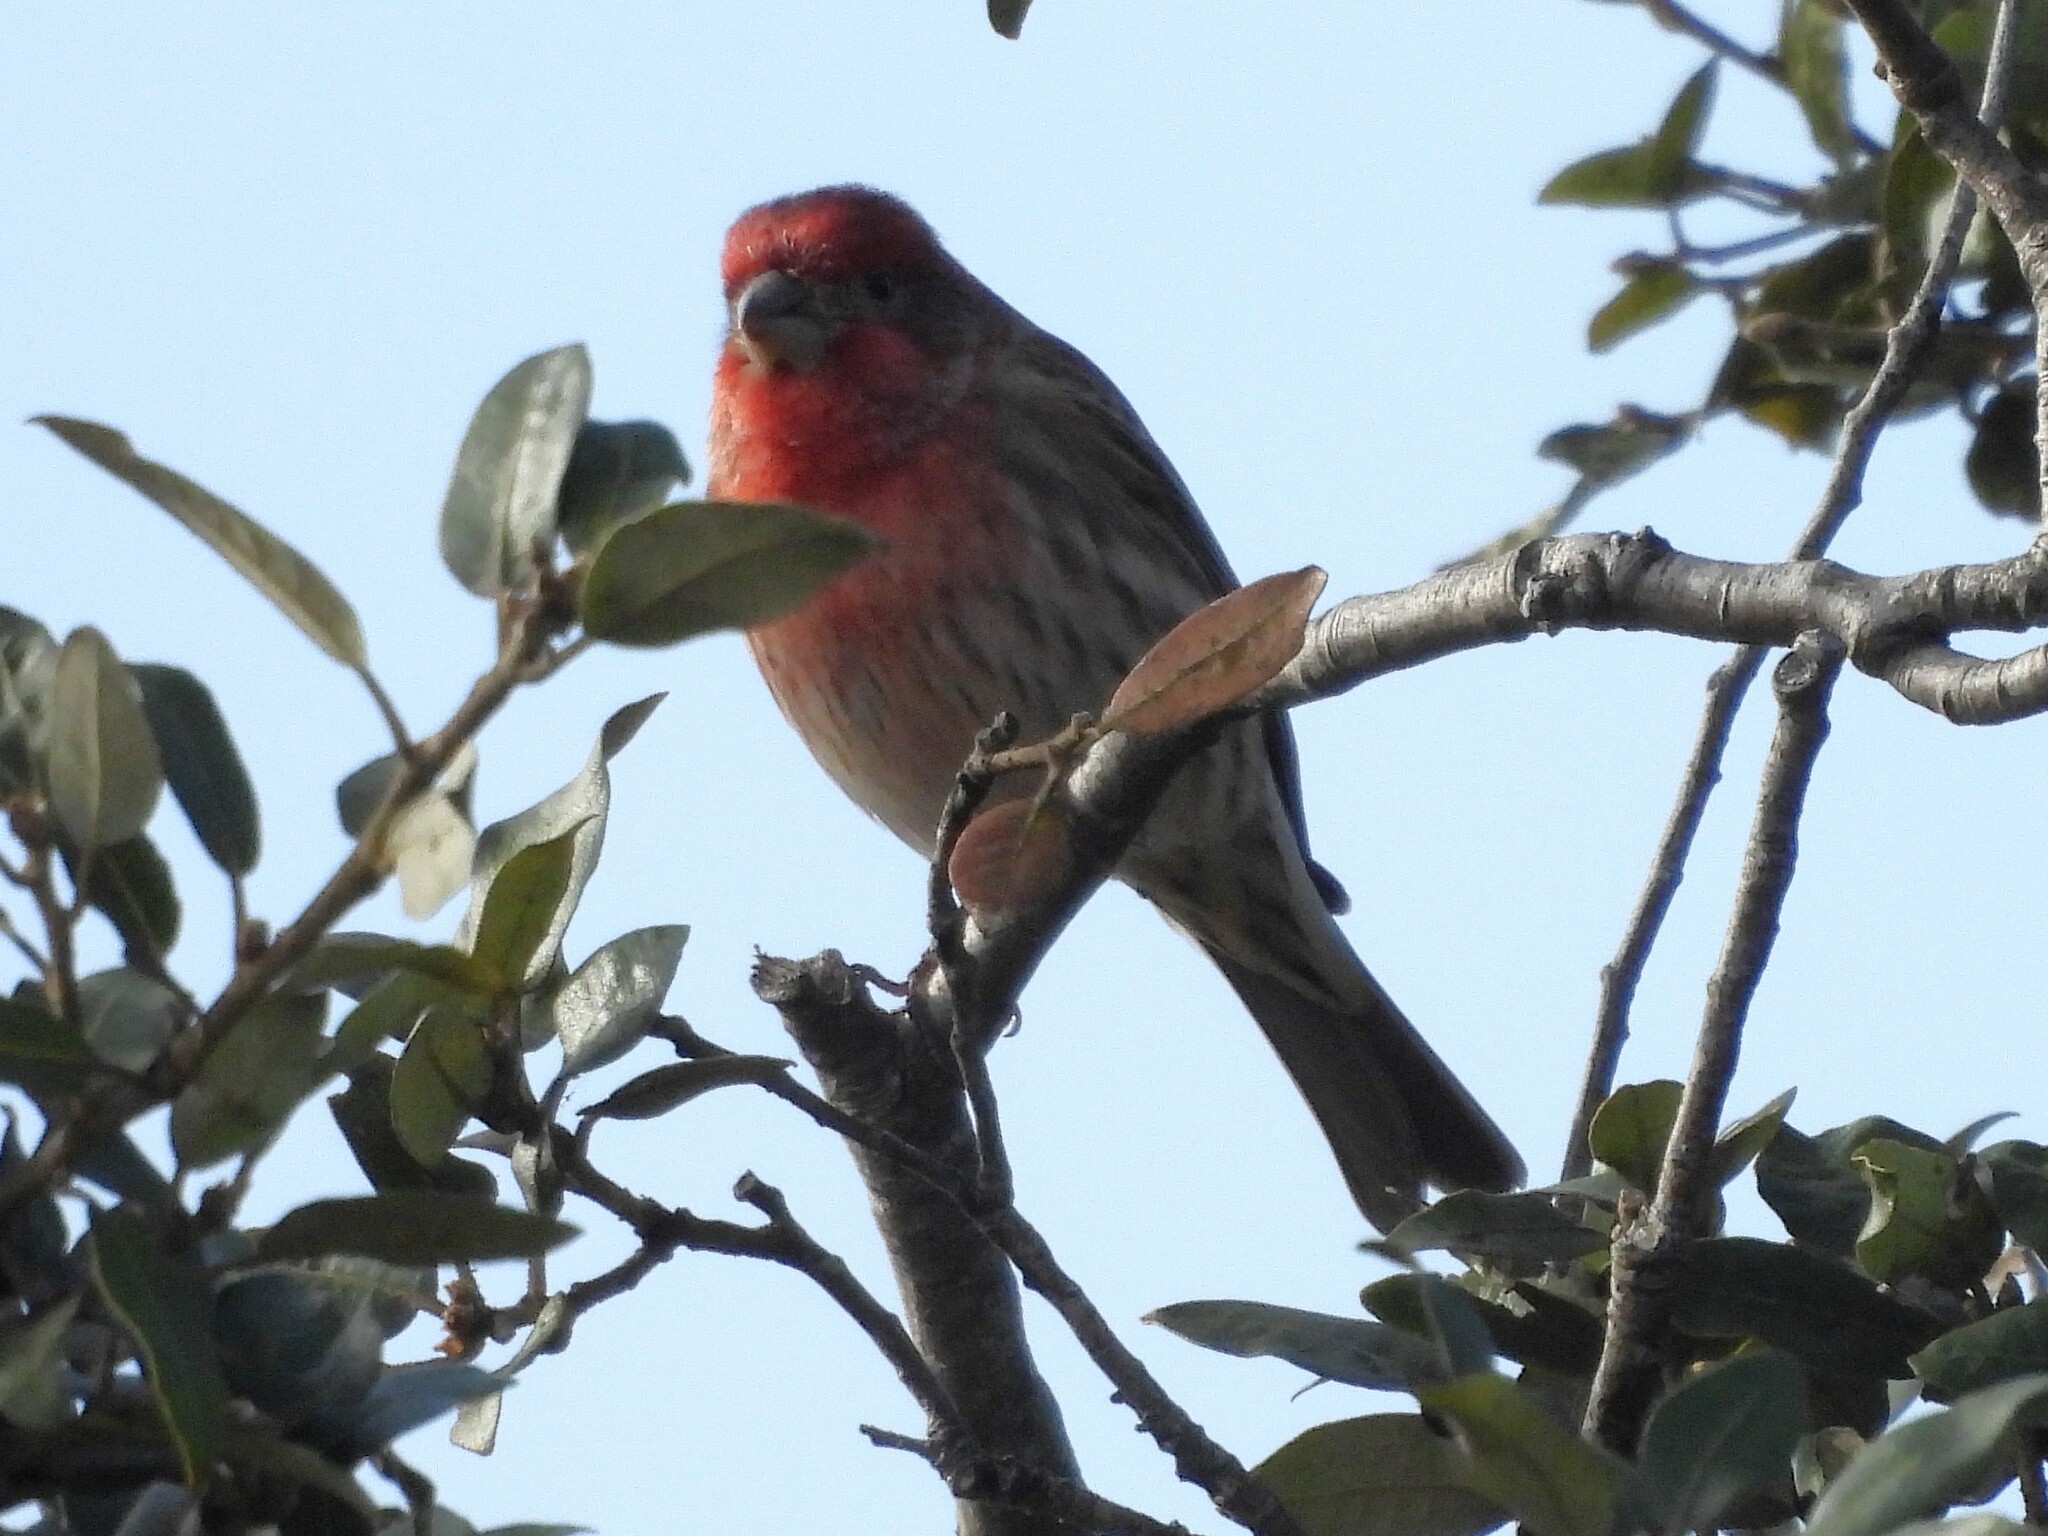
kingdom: Animalia
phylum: Chordata
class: Aves
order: Passeriformes
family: Fringillidae
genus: Haemorhous
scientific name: Haemorhous mexicanus
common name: House finch
